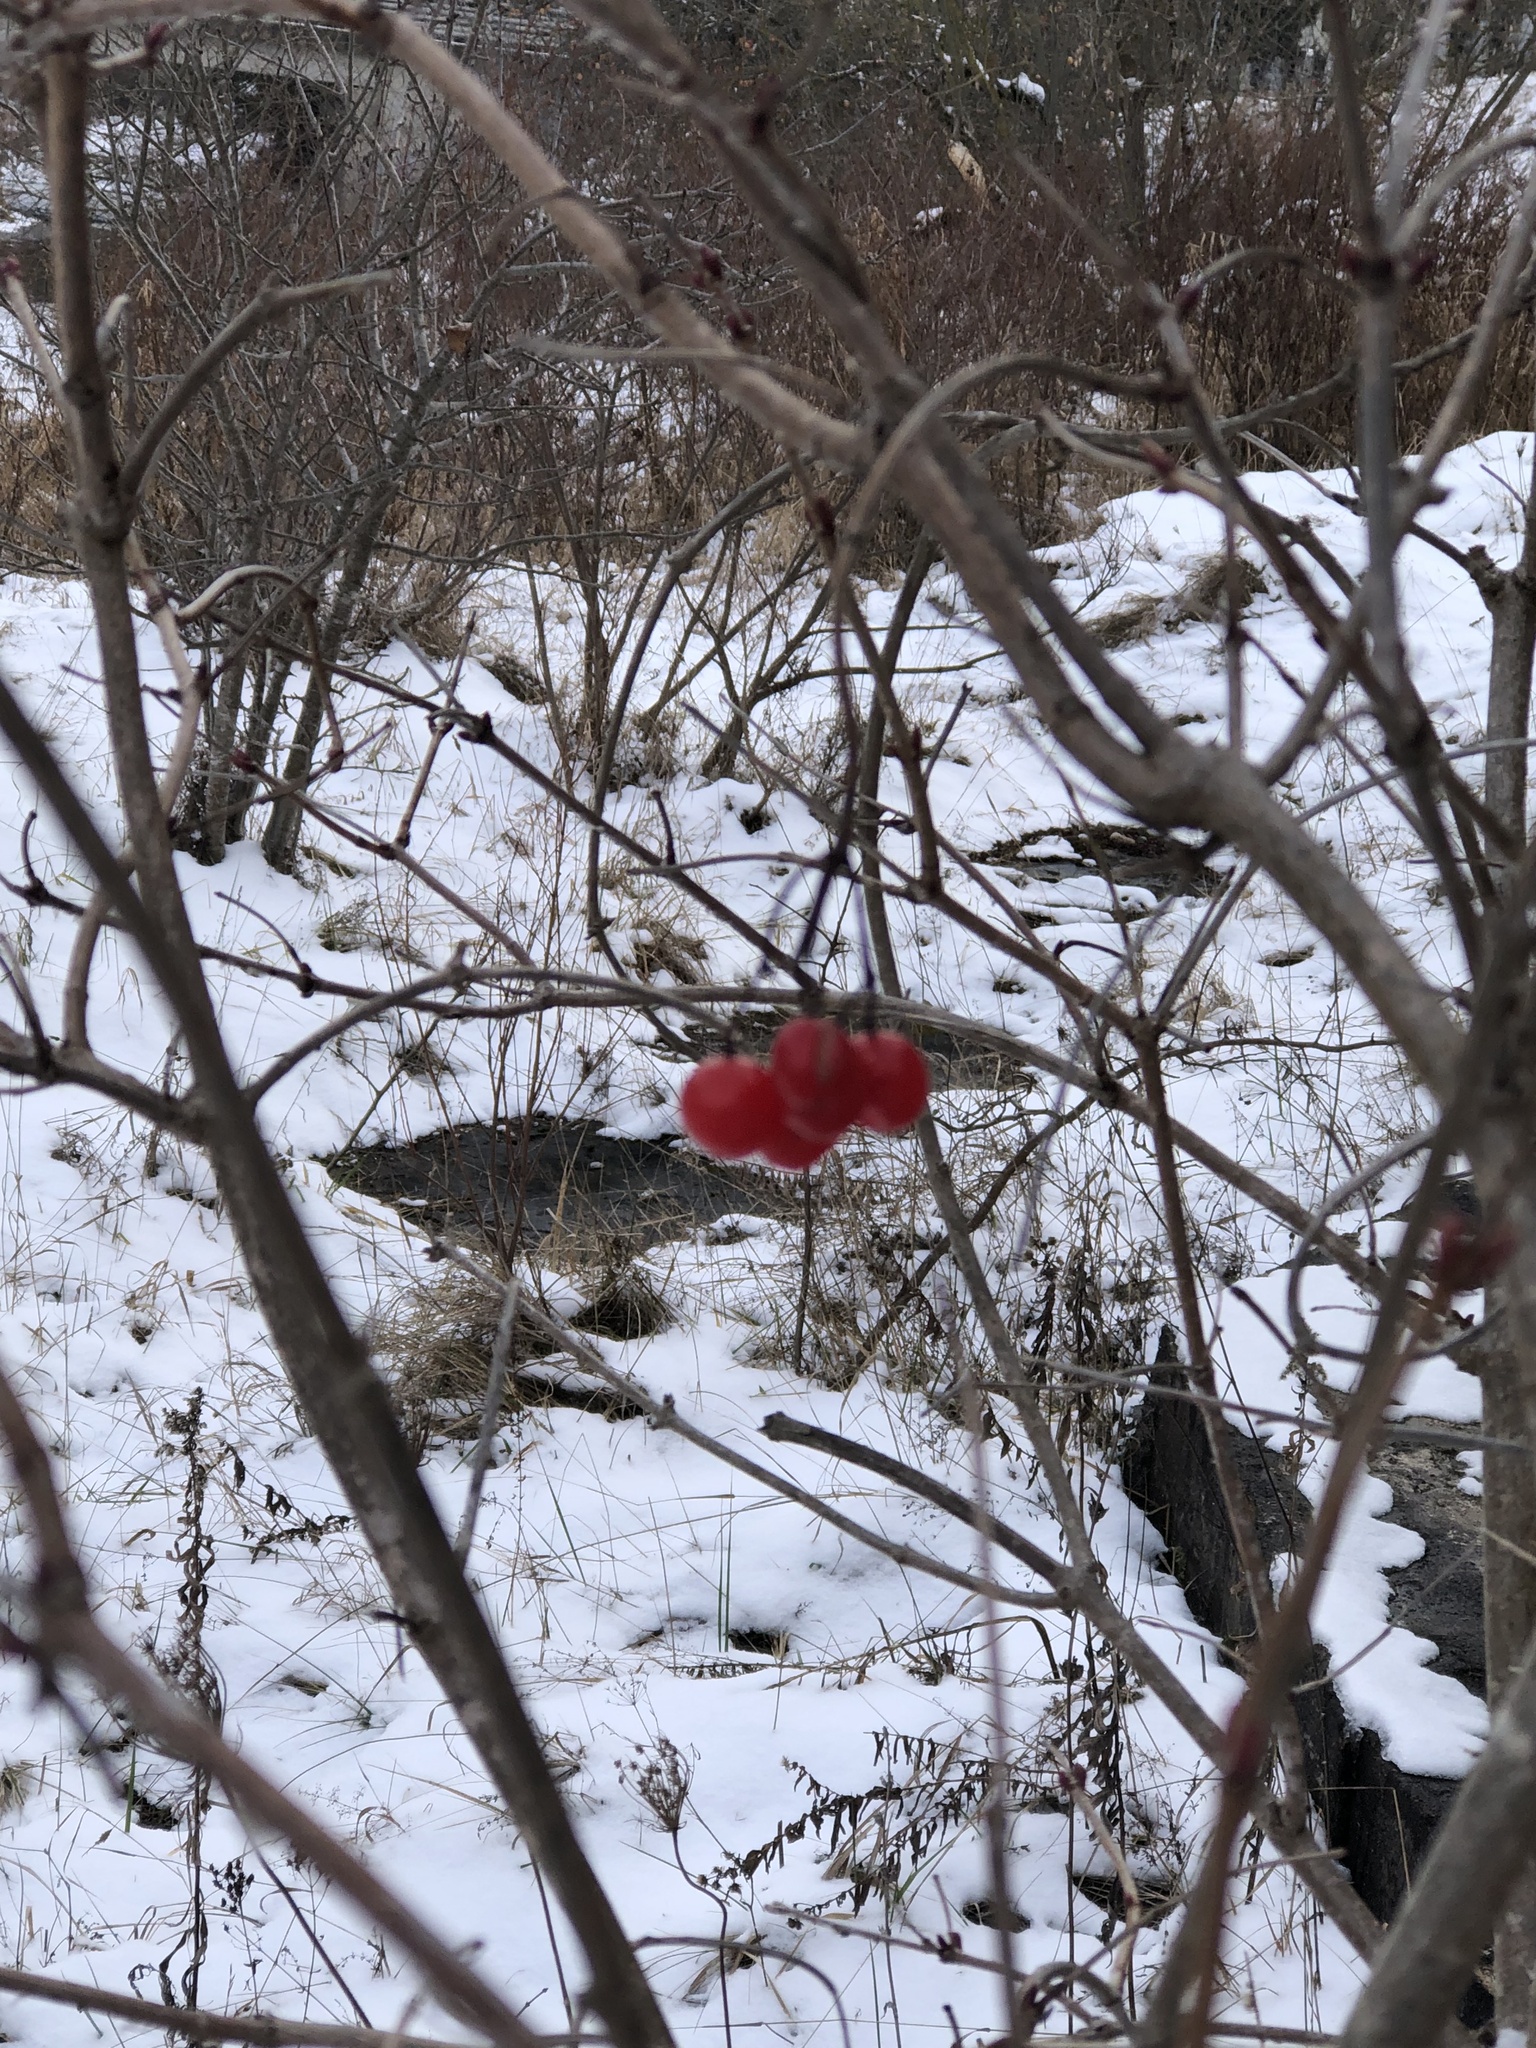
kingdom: Plantae
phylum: Tracheophyta
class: Magnoliopsida
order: Dipsacales
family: Viburnaceae
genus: Viburnum
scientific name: Viburnum opulus
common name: Guelder-rose
